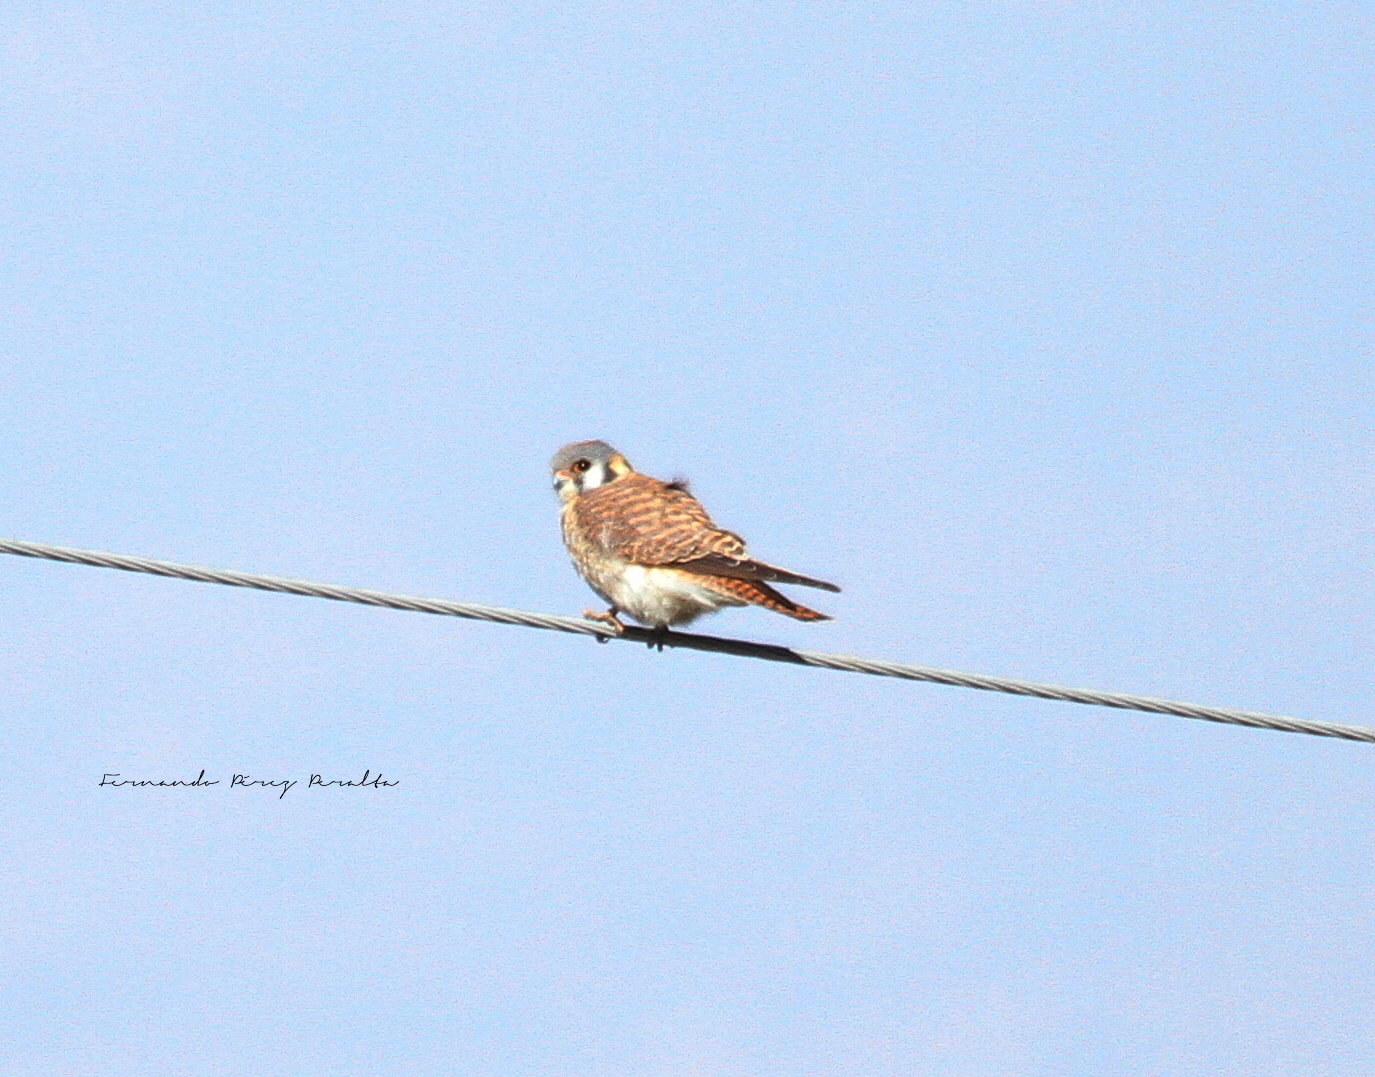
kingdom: Animalia
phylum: Chordata
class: Aves
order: Falconiformes
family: Falconidae
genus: Falco
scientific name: Falco sparverius
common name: American kestrel
